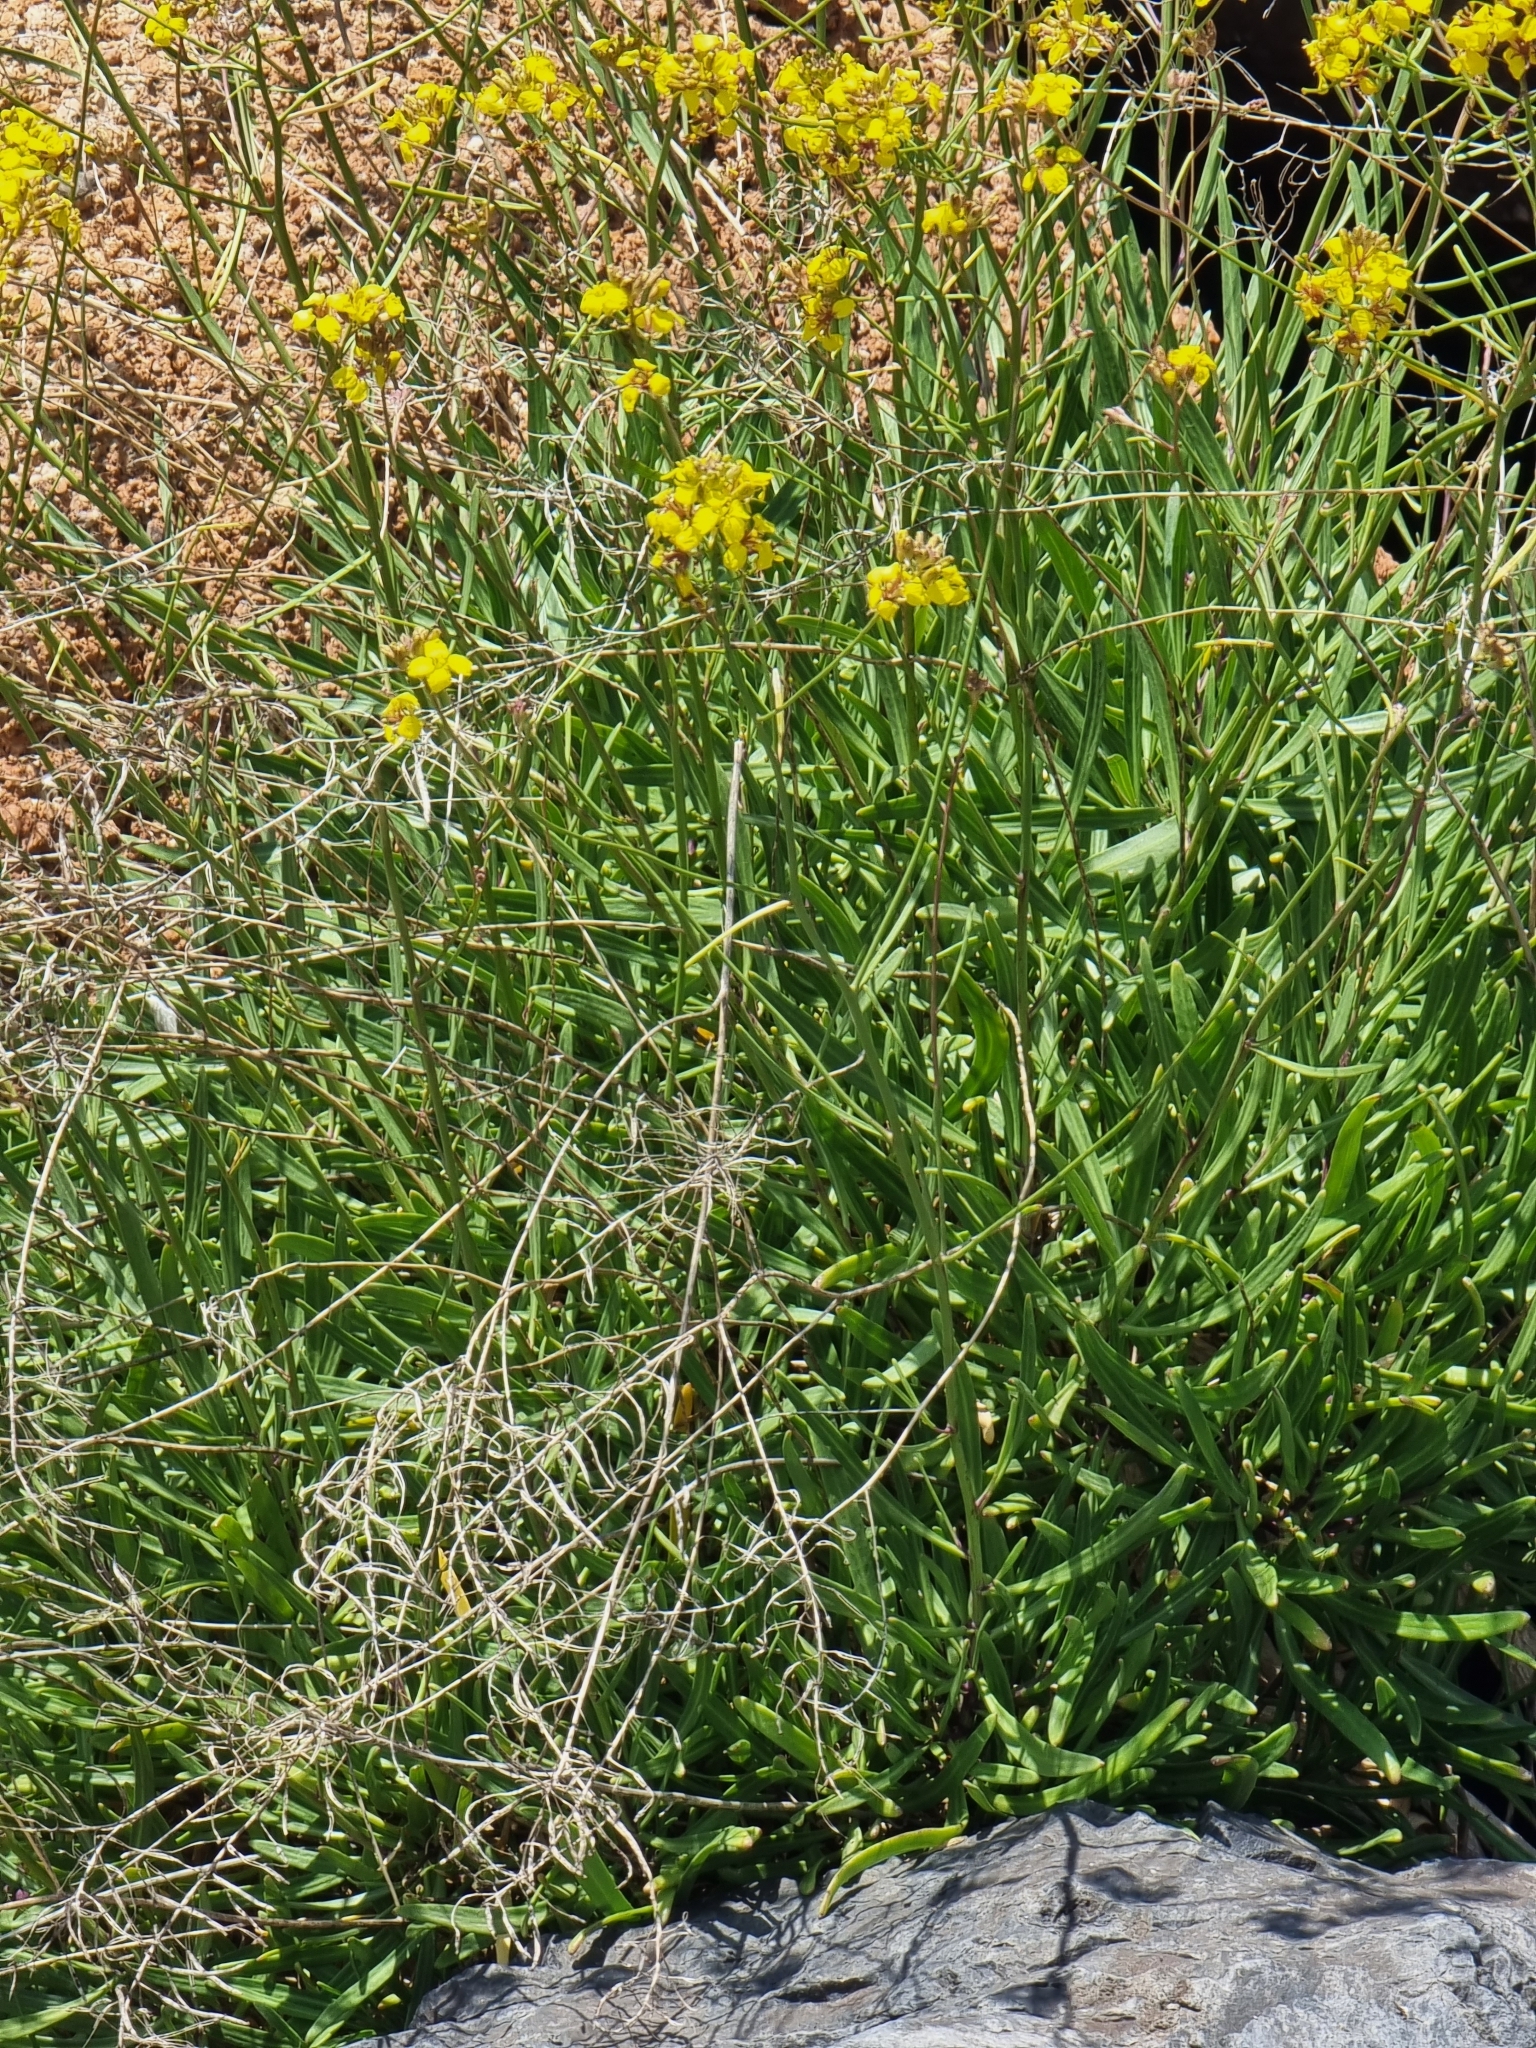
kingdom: Plantae
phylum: Tracheophyta
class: Magnoliopsida
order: Brassicales
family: Brassicaceae
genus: Sinapidendron
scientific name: Sinapidendron angustifolium
